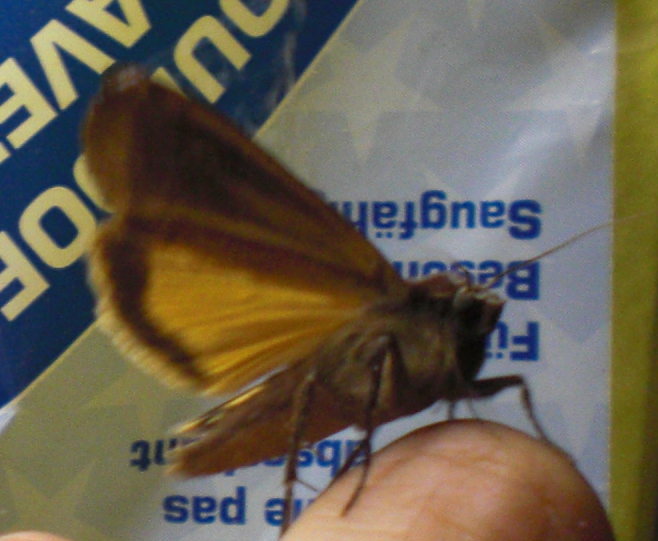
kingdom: Animalia
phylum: Arthropoda
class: Insecta
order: Lepidoptera
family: Noctuidae
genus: Noctua
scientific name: Noctua pronuba
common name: Large yellow underwing
